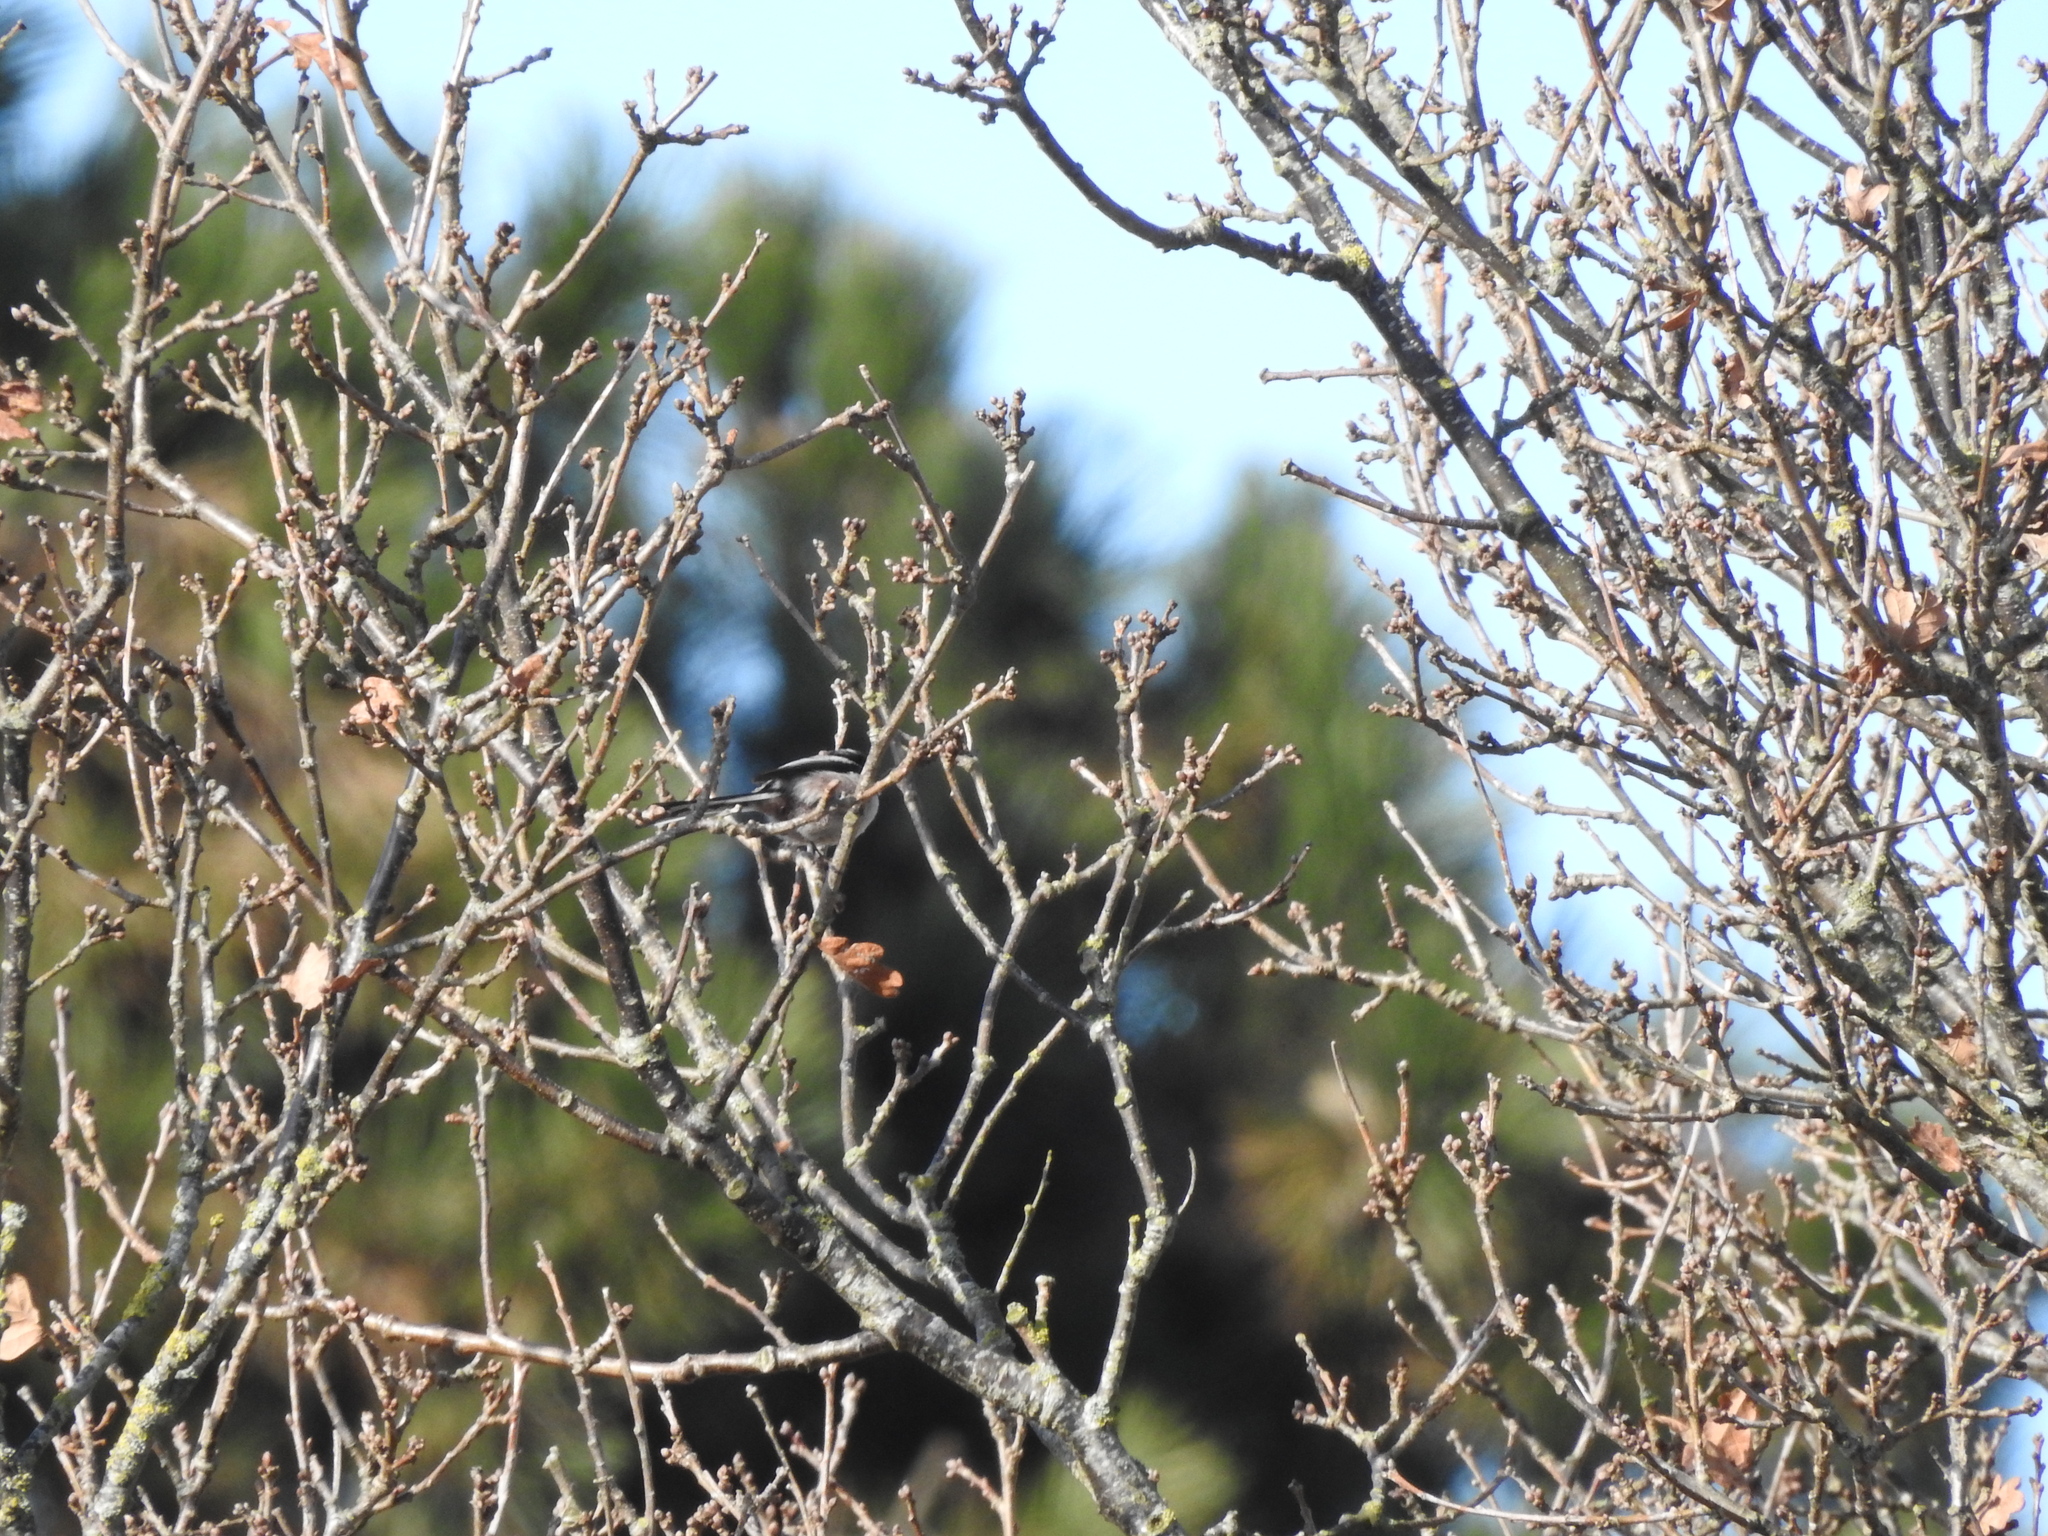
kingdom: Animalia
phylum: Chordata
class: Aves
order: Passeriformes
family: Aegithalidae
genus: Aegithalos
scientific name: Aegithalos caudatus
